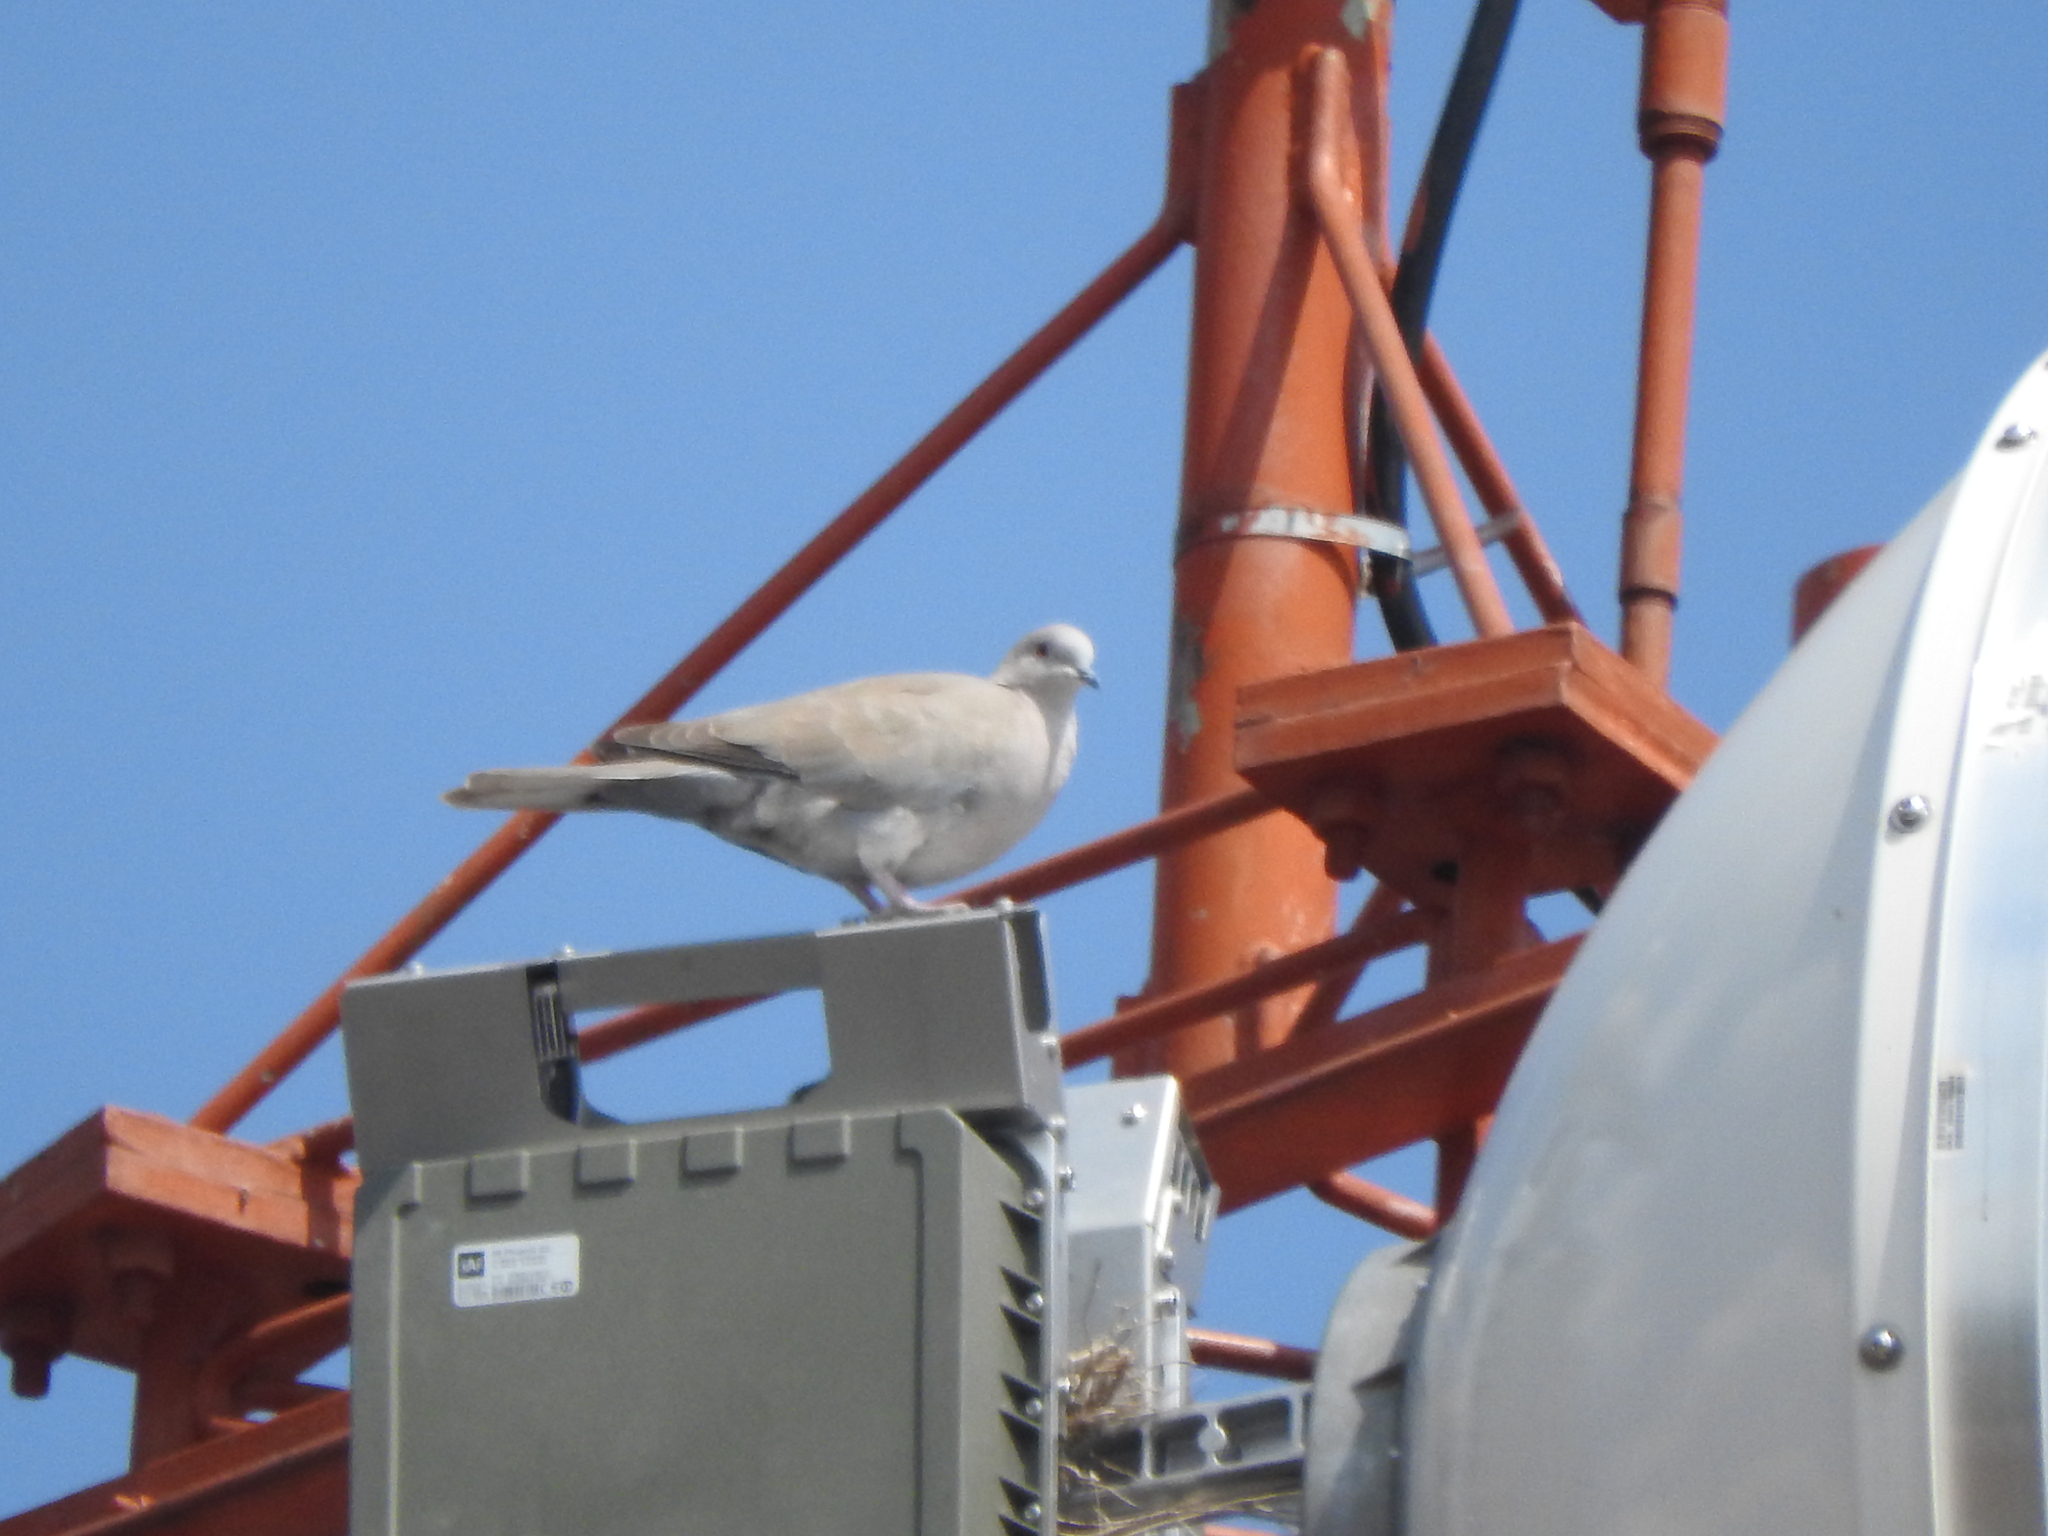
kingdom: Animalia
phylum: Chordata
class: Aves
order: Columbiformes
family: Columbidae
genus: Streptopelia
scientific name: Streptopelia decaocto
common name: Eurasian collared dove
